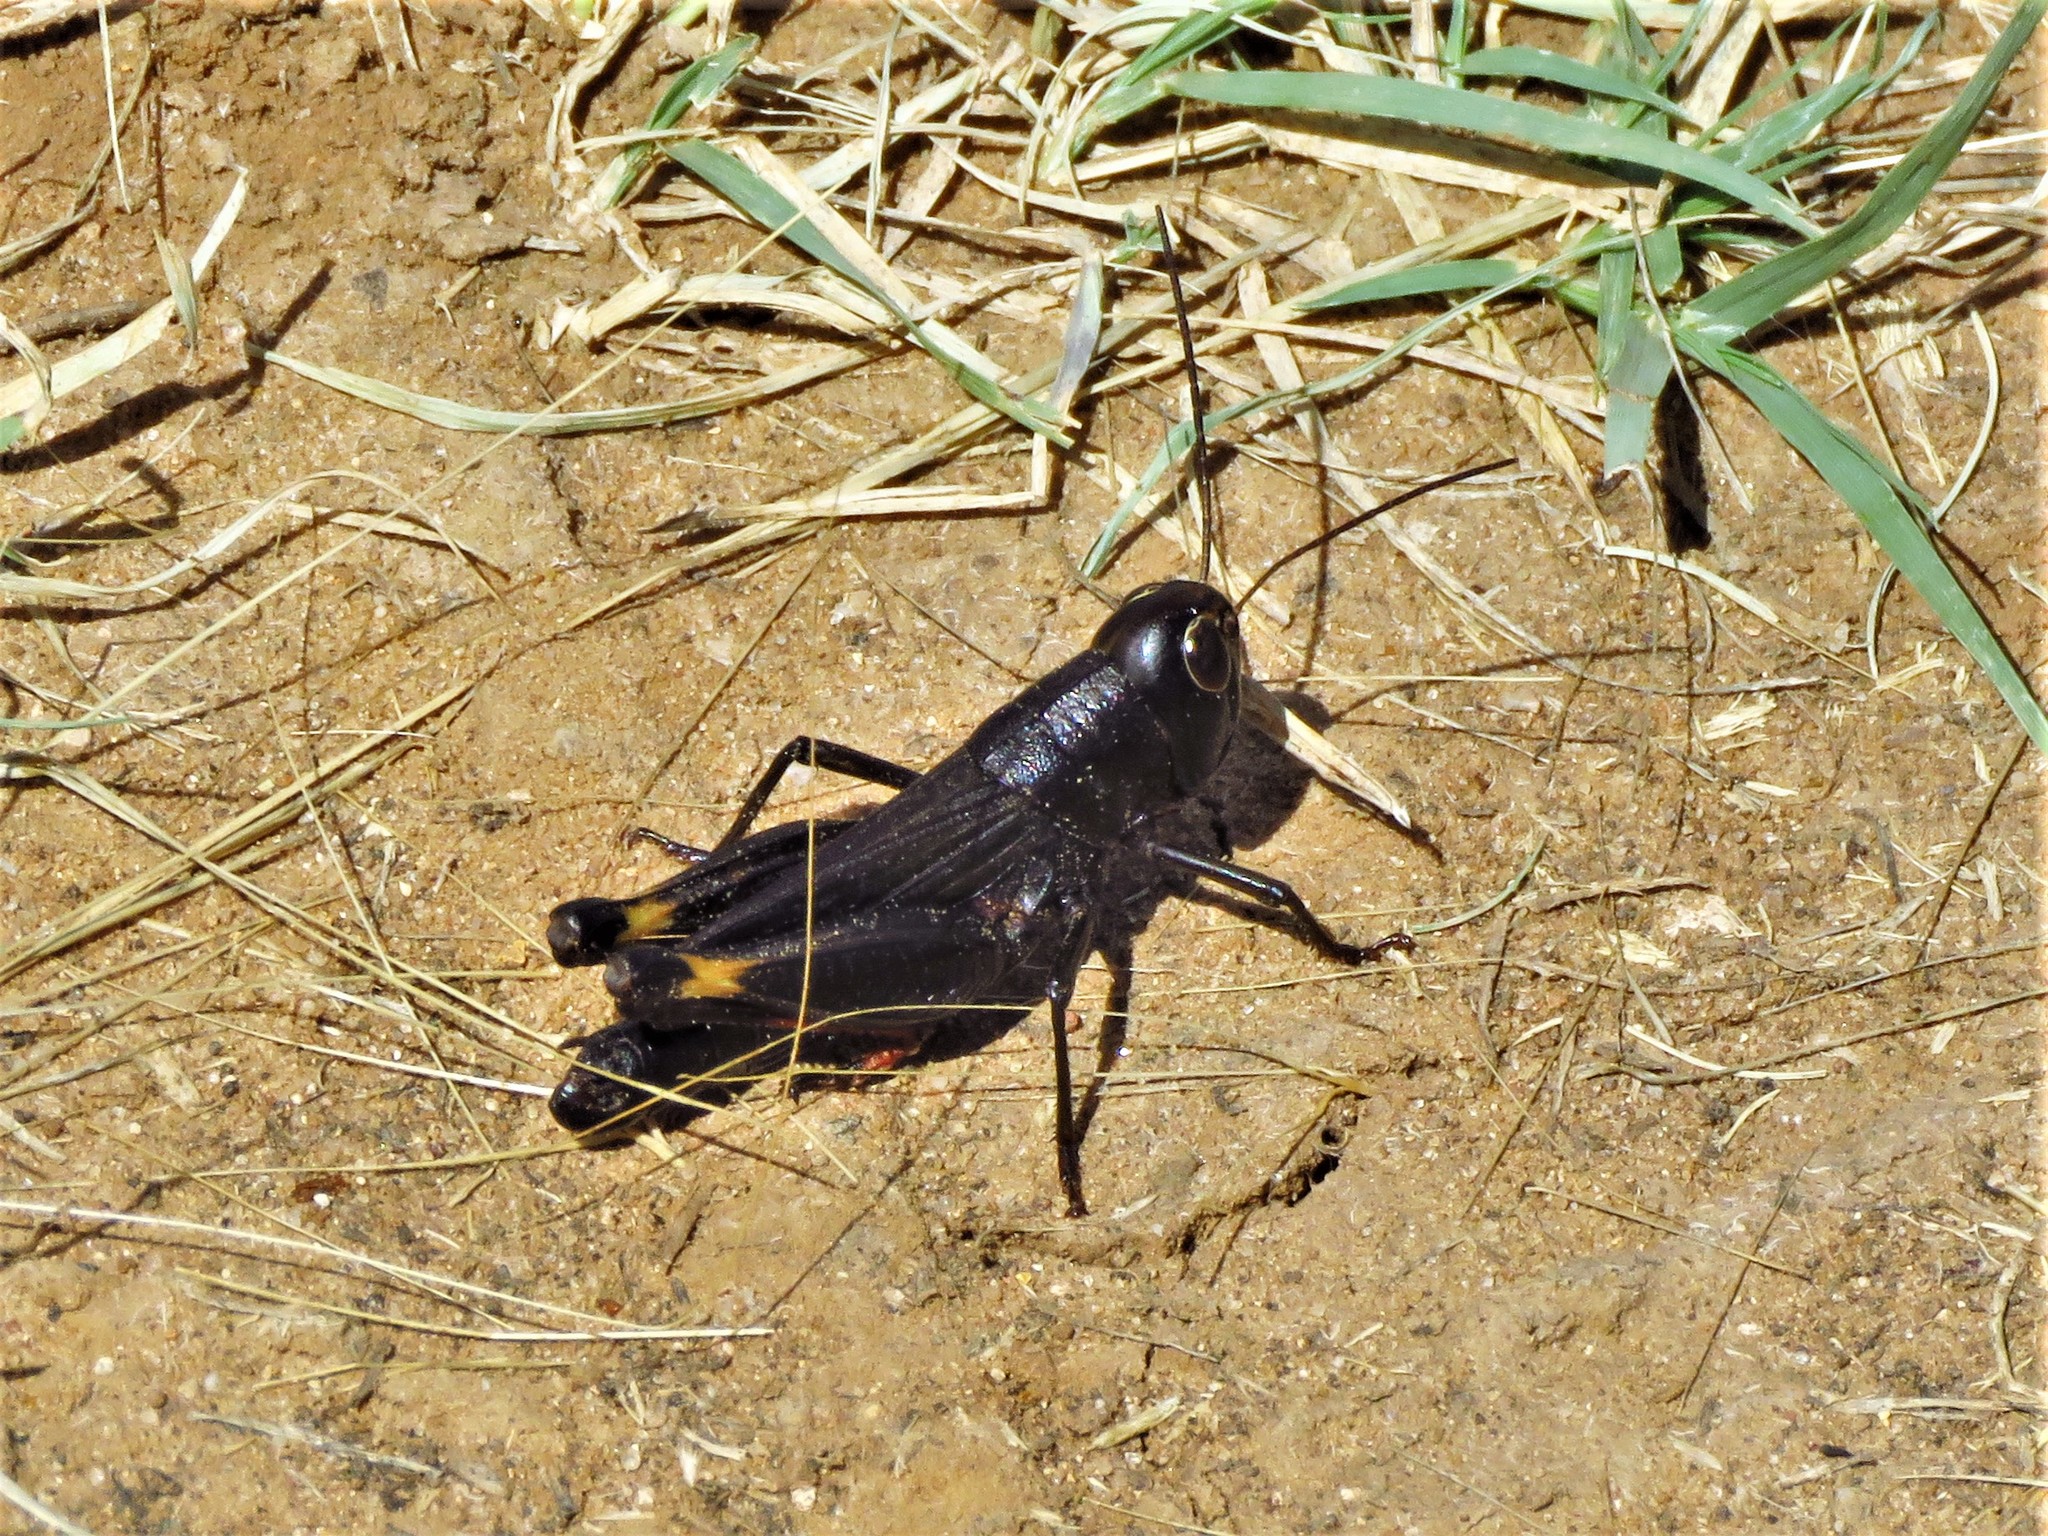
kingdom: Animalia
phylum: Arthropoda
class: Insecta
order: Orthoptera
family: Acrididae
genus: Boopedon
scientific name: Boopedon nubilum
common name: Ebony grasshopper
